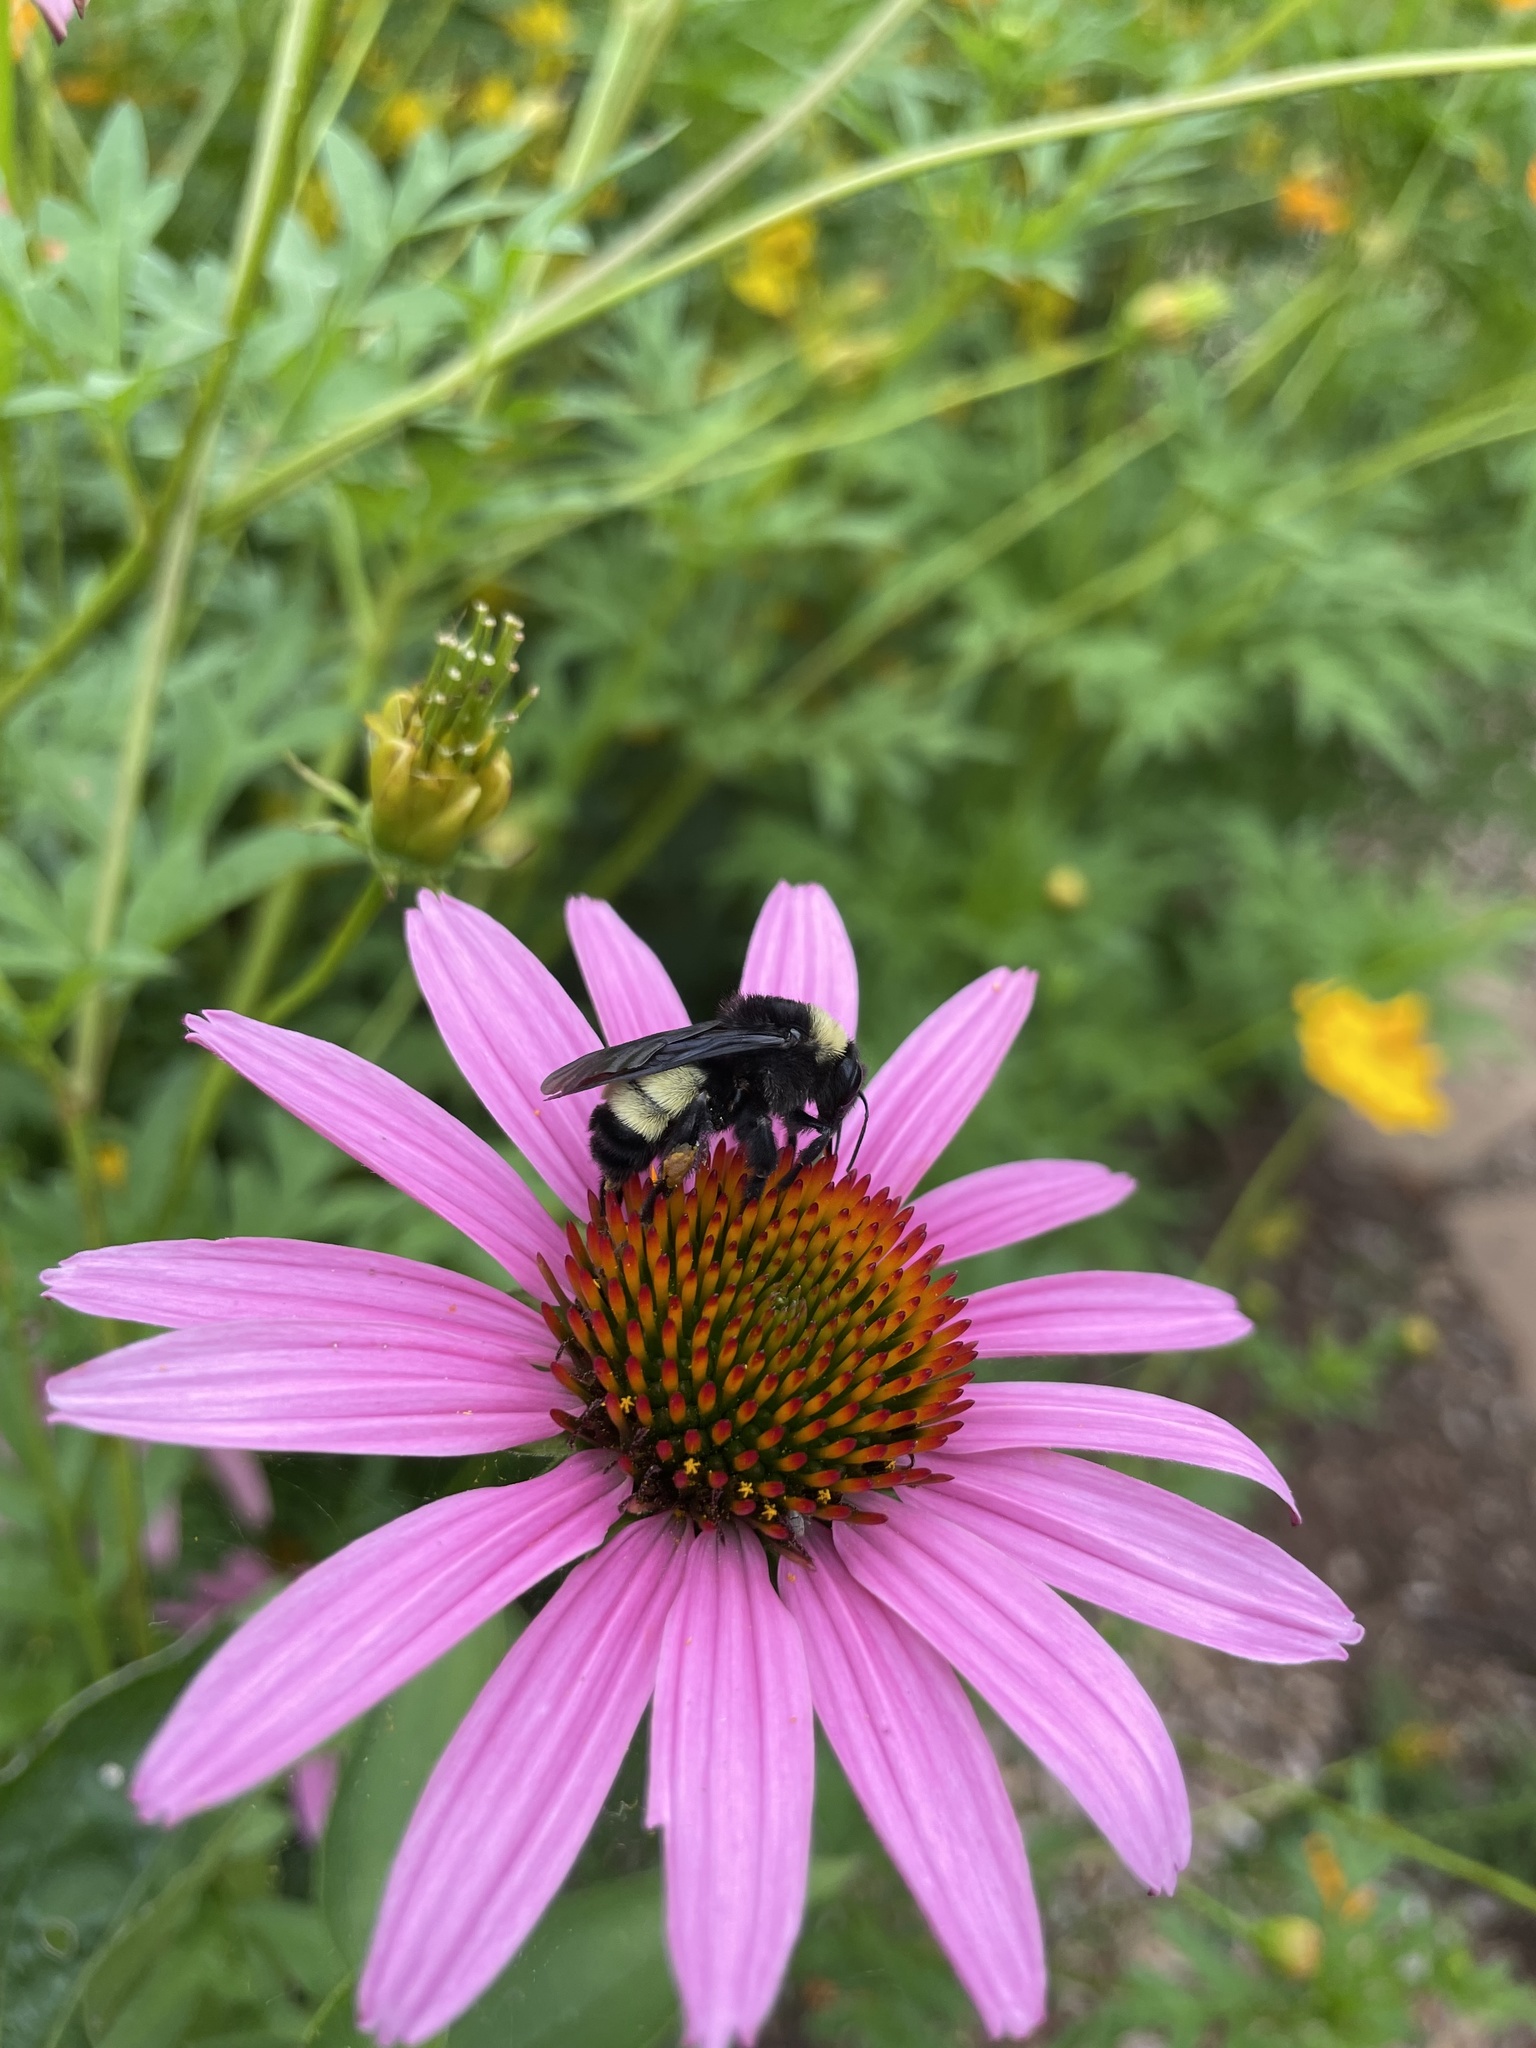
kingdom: Animalia
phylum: Arthropoda
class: Insecta
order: Hymenoptera
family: Apidae
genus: Bombus
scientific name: Bombus pensylvanicus
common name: Bumble bee
